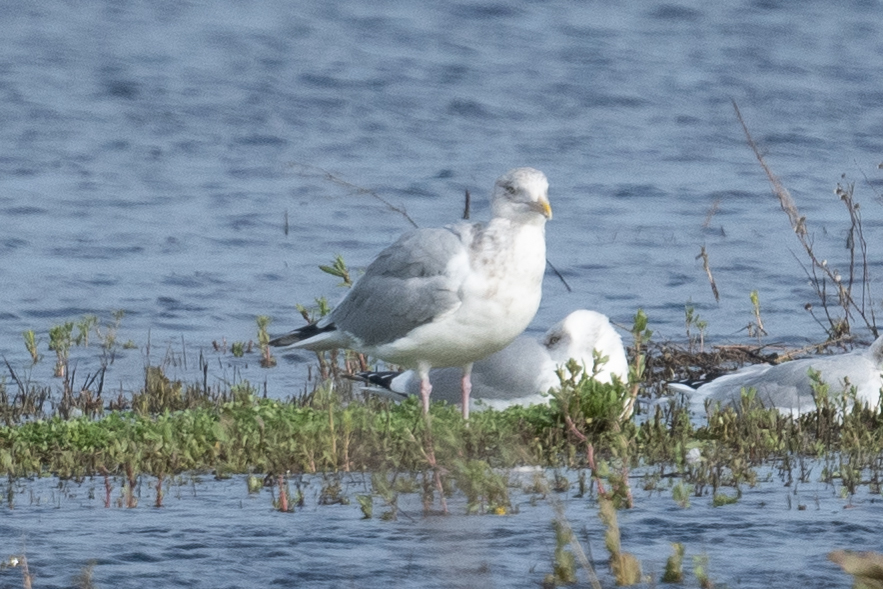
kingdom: Animalia
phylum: Chordata
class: Aves
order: Charadriiformes
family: Laridae
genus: Larus
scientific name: Larus smithsonianus
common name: American herring gull
